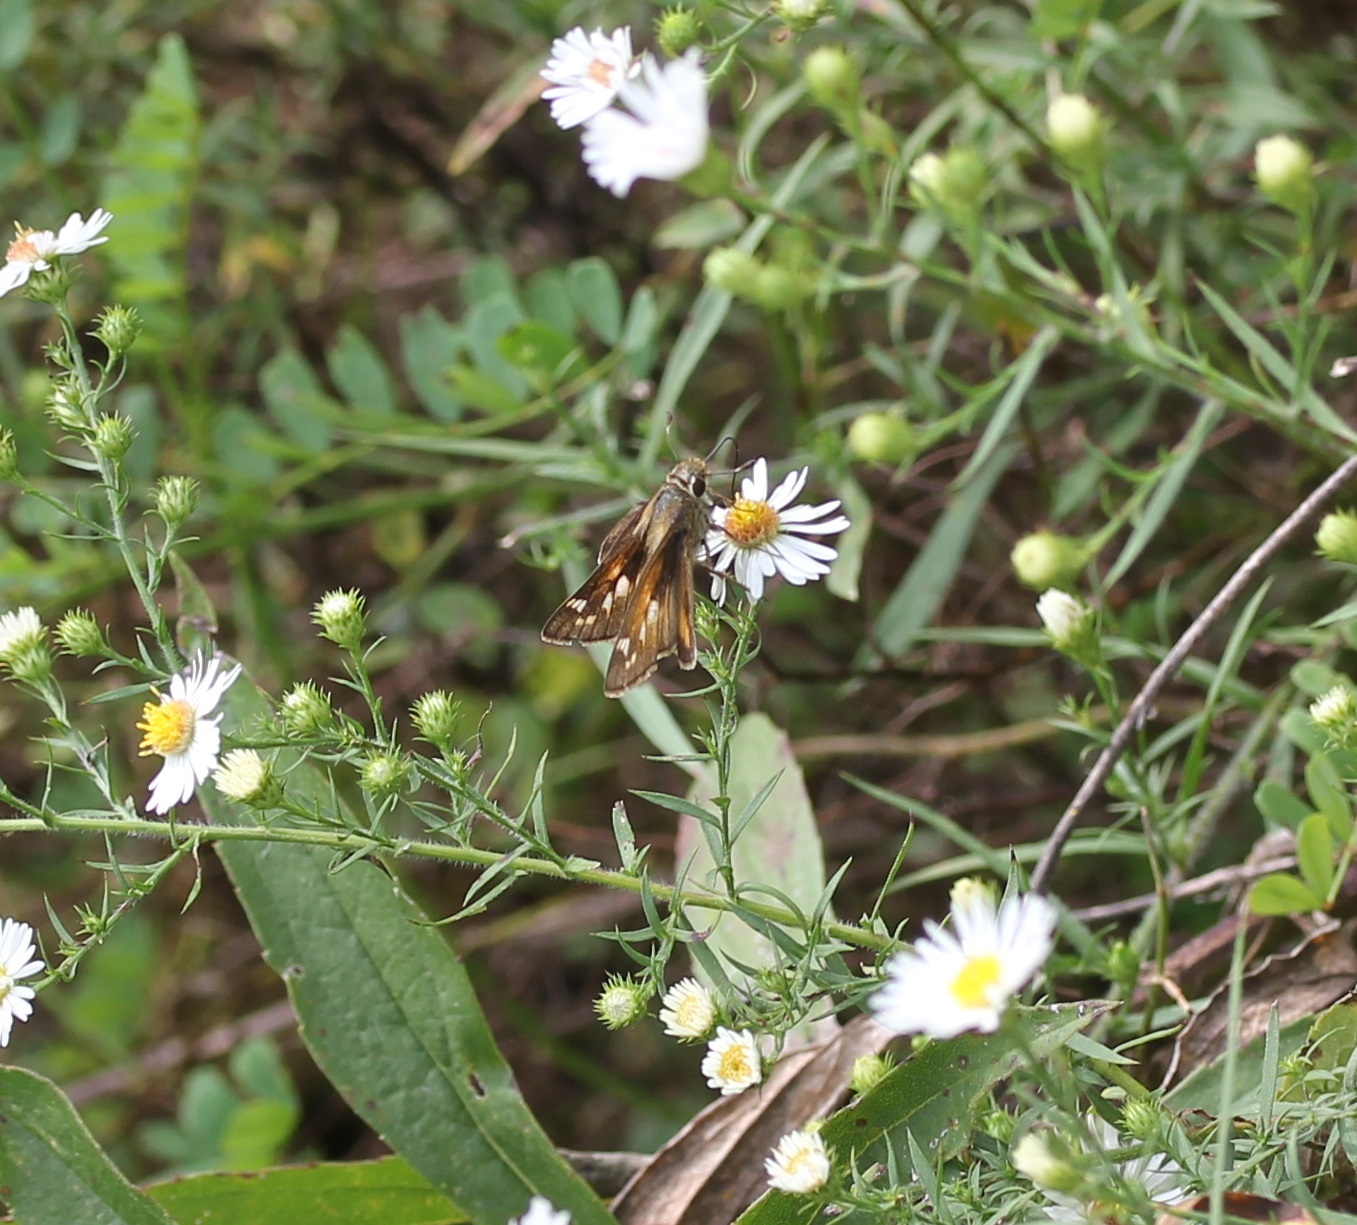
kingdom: Animalia
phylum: Arthropoda
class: Insecta
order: Lepidoptera
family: Hesperiidae
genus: Atalopedes
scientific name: Atalopedes
